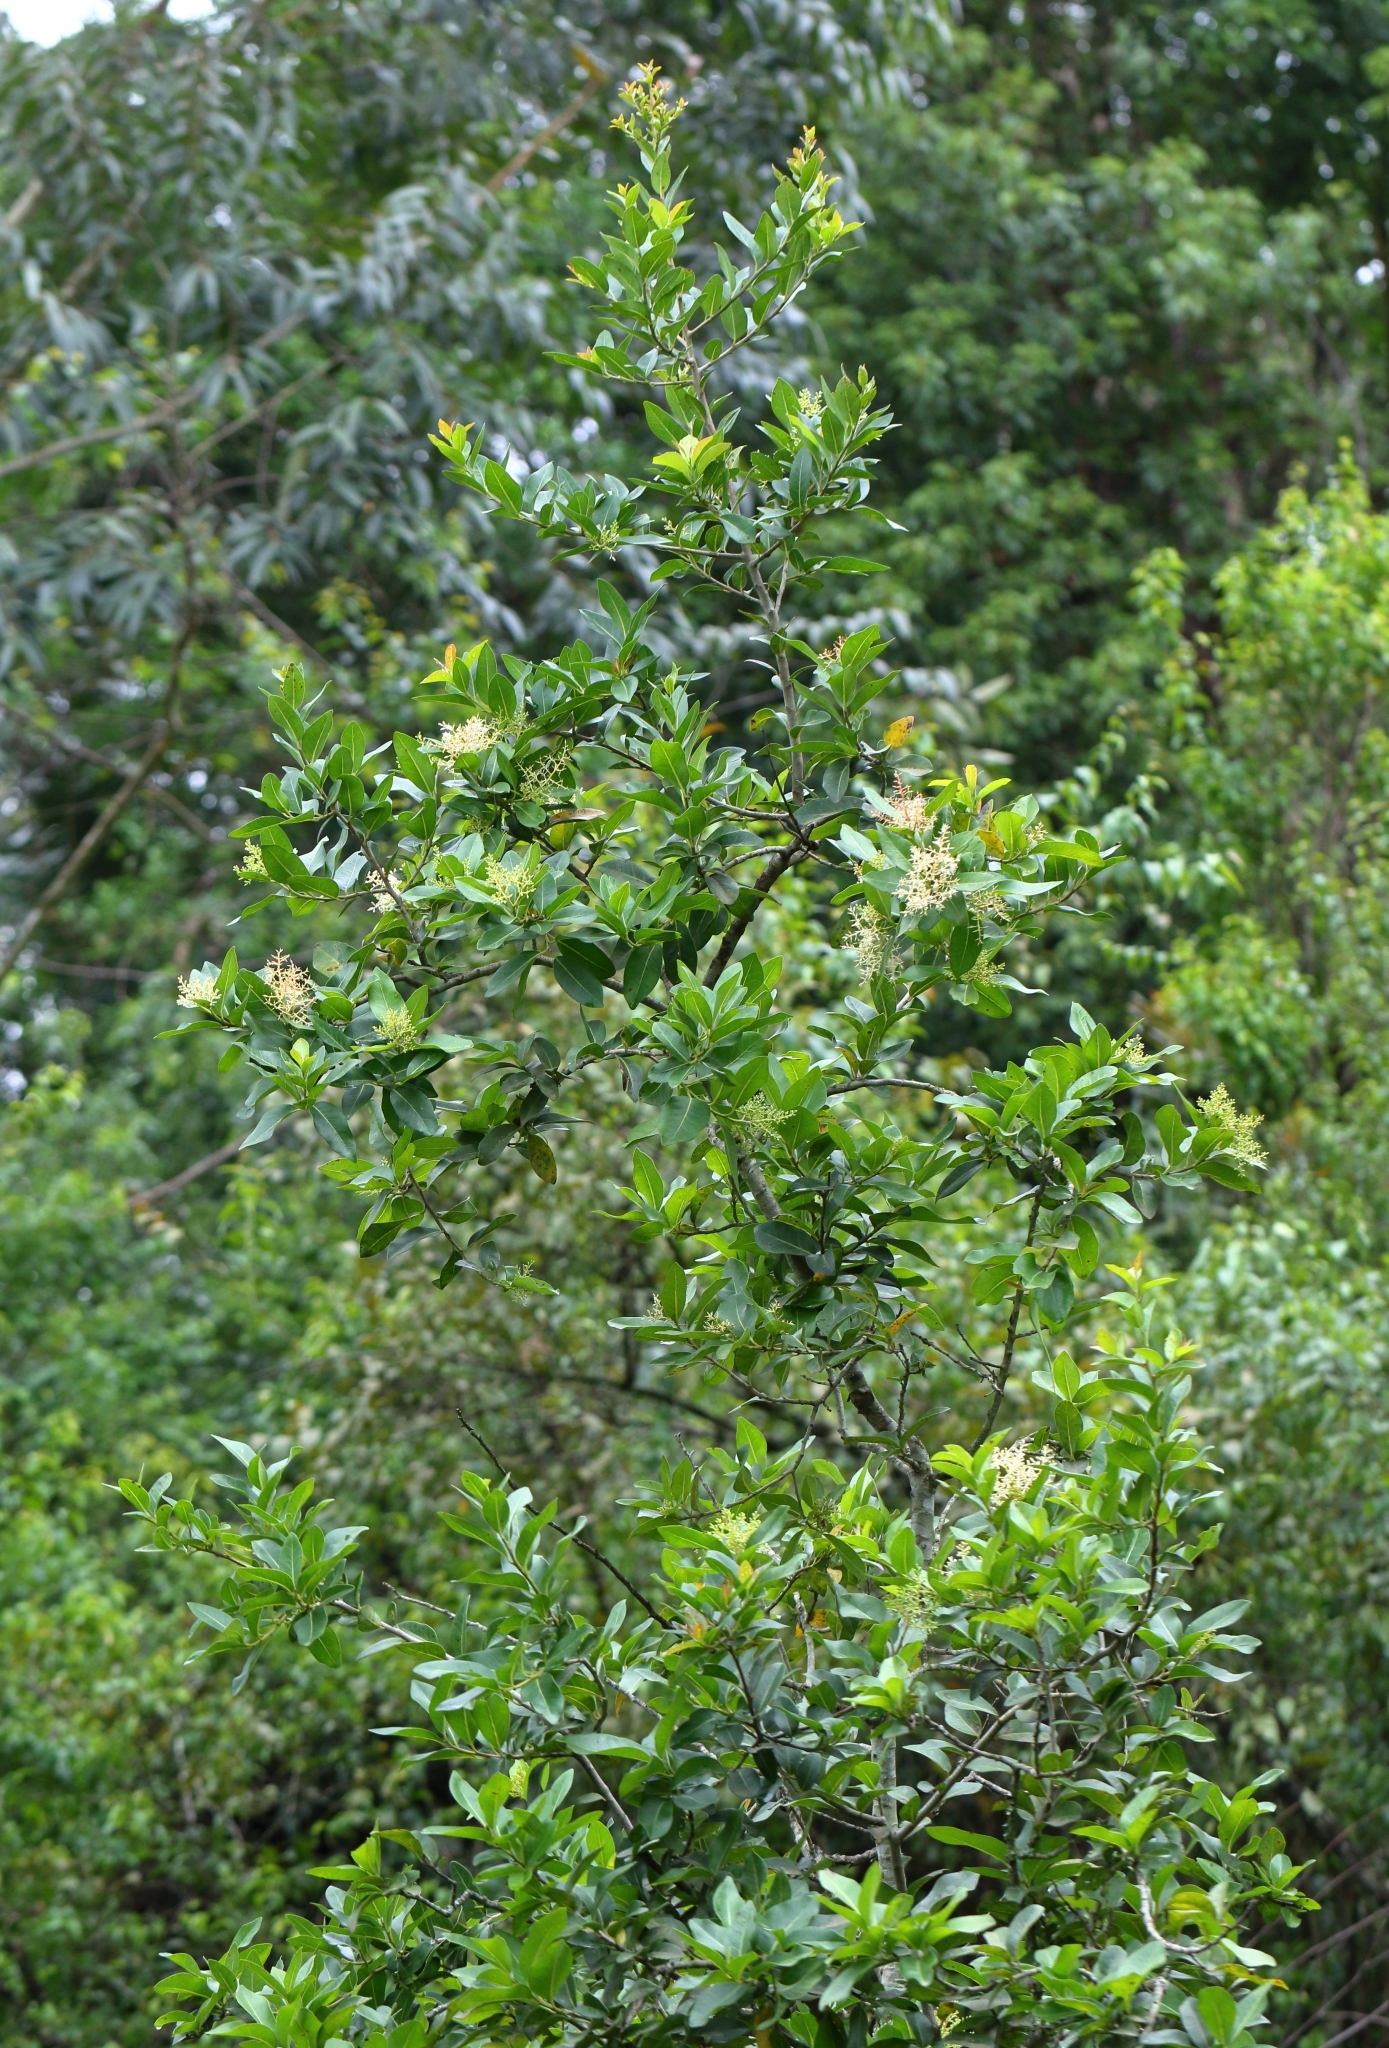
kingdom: Plantae
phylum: Tracheophyta
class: Magnoliopsida
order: Metteniusales
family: Metteniusaceae
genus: Apodytes
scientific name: Apodytes dimidiata
